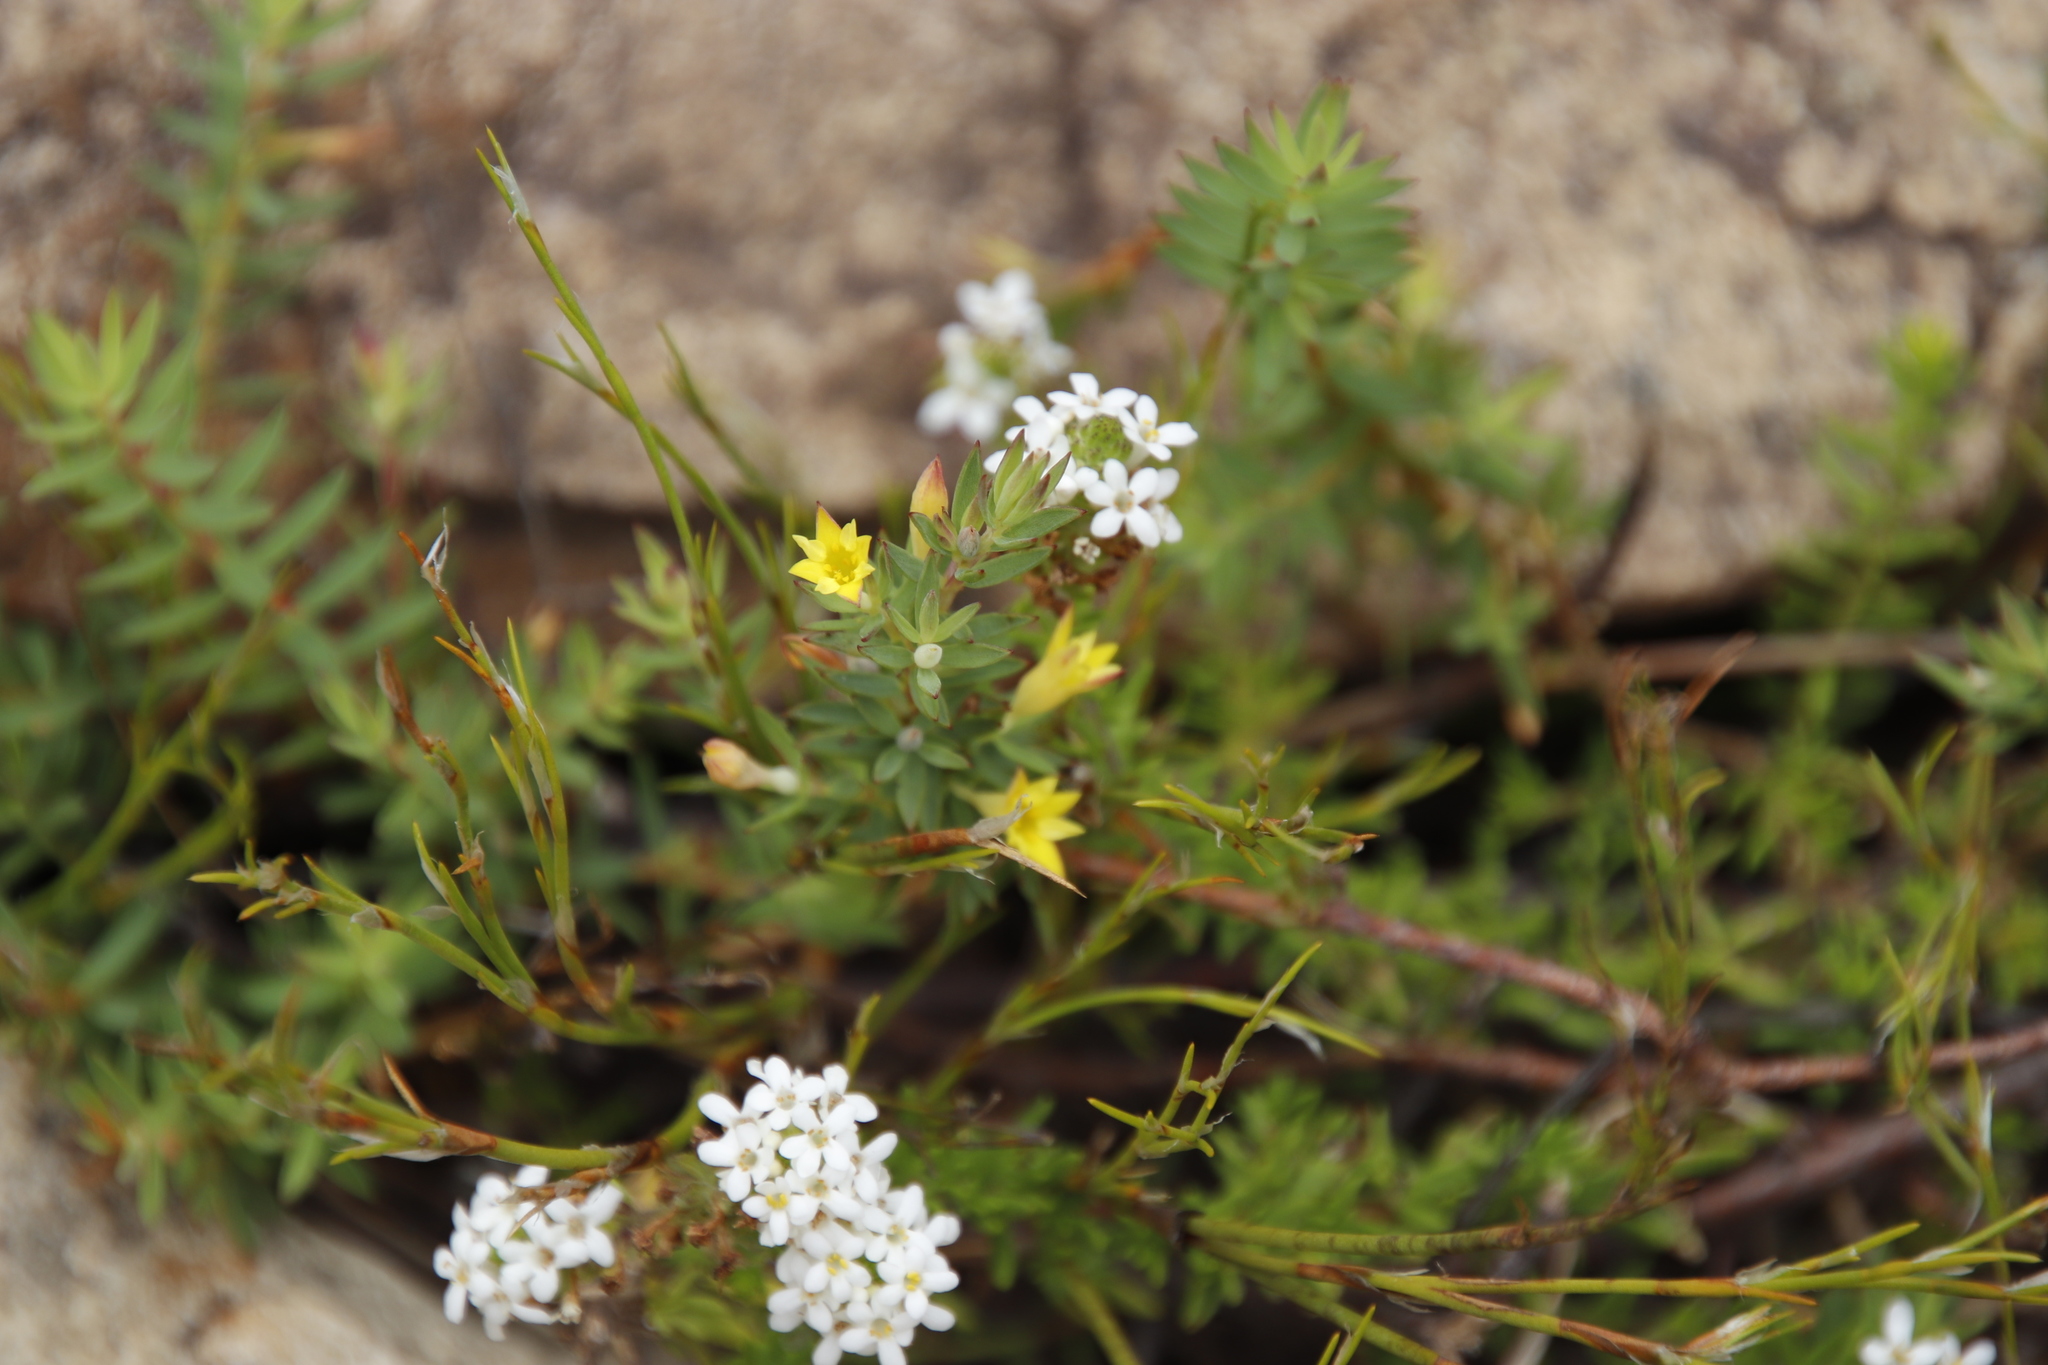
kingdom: Plantae
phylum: Tracheophyta
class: Magnoliopsida
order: Malvales
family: Thymelaeaceae
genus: Gnidia
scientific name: Gnidia juniperifolia
